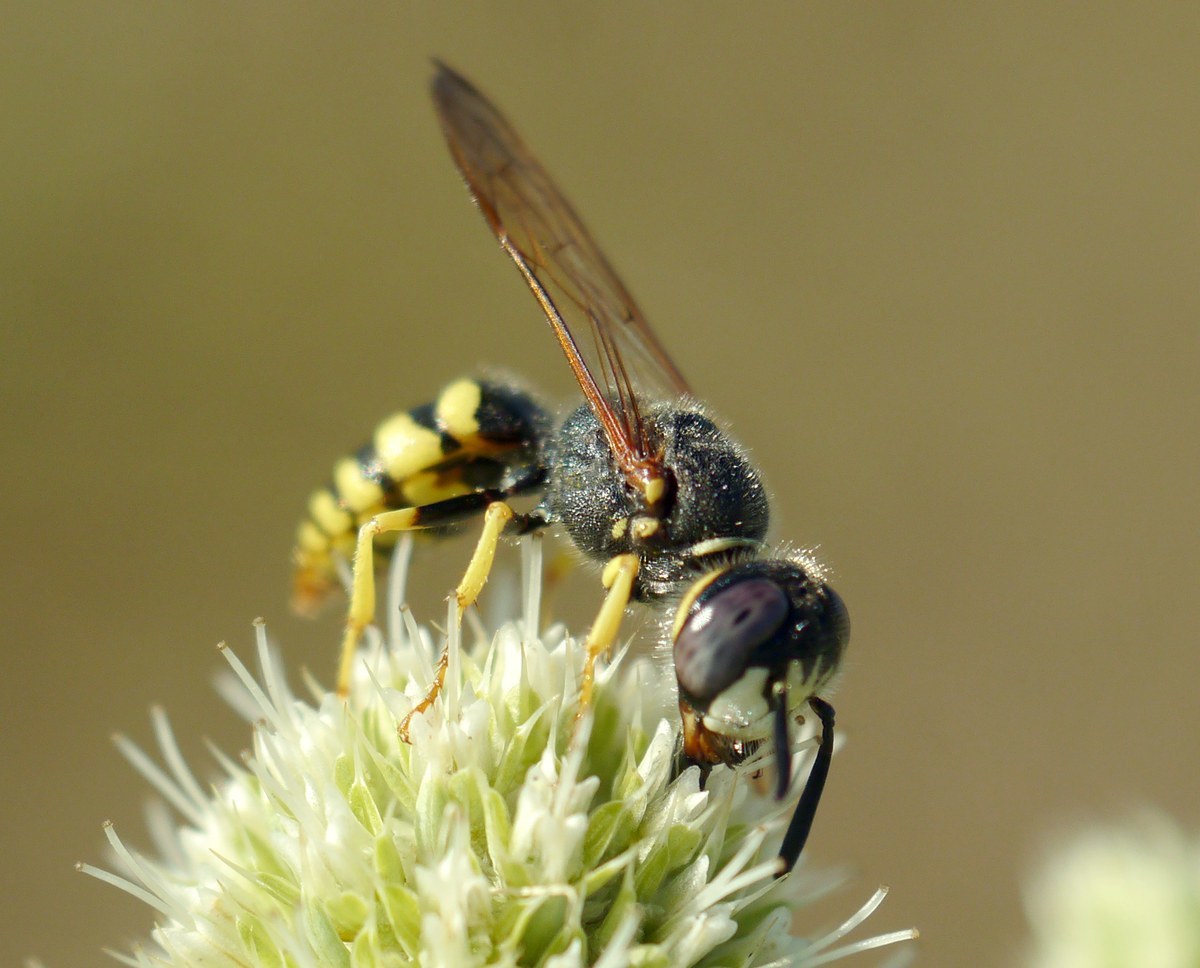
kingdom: Animalia
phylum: Arthropoda
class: Insecta
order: Hymenoptera
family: Crabronidae
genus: Philanthus
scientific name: Philanthus triangulum
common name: Bee wolf
